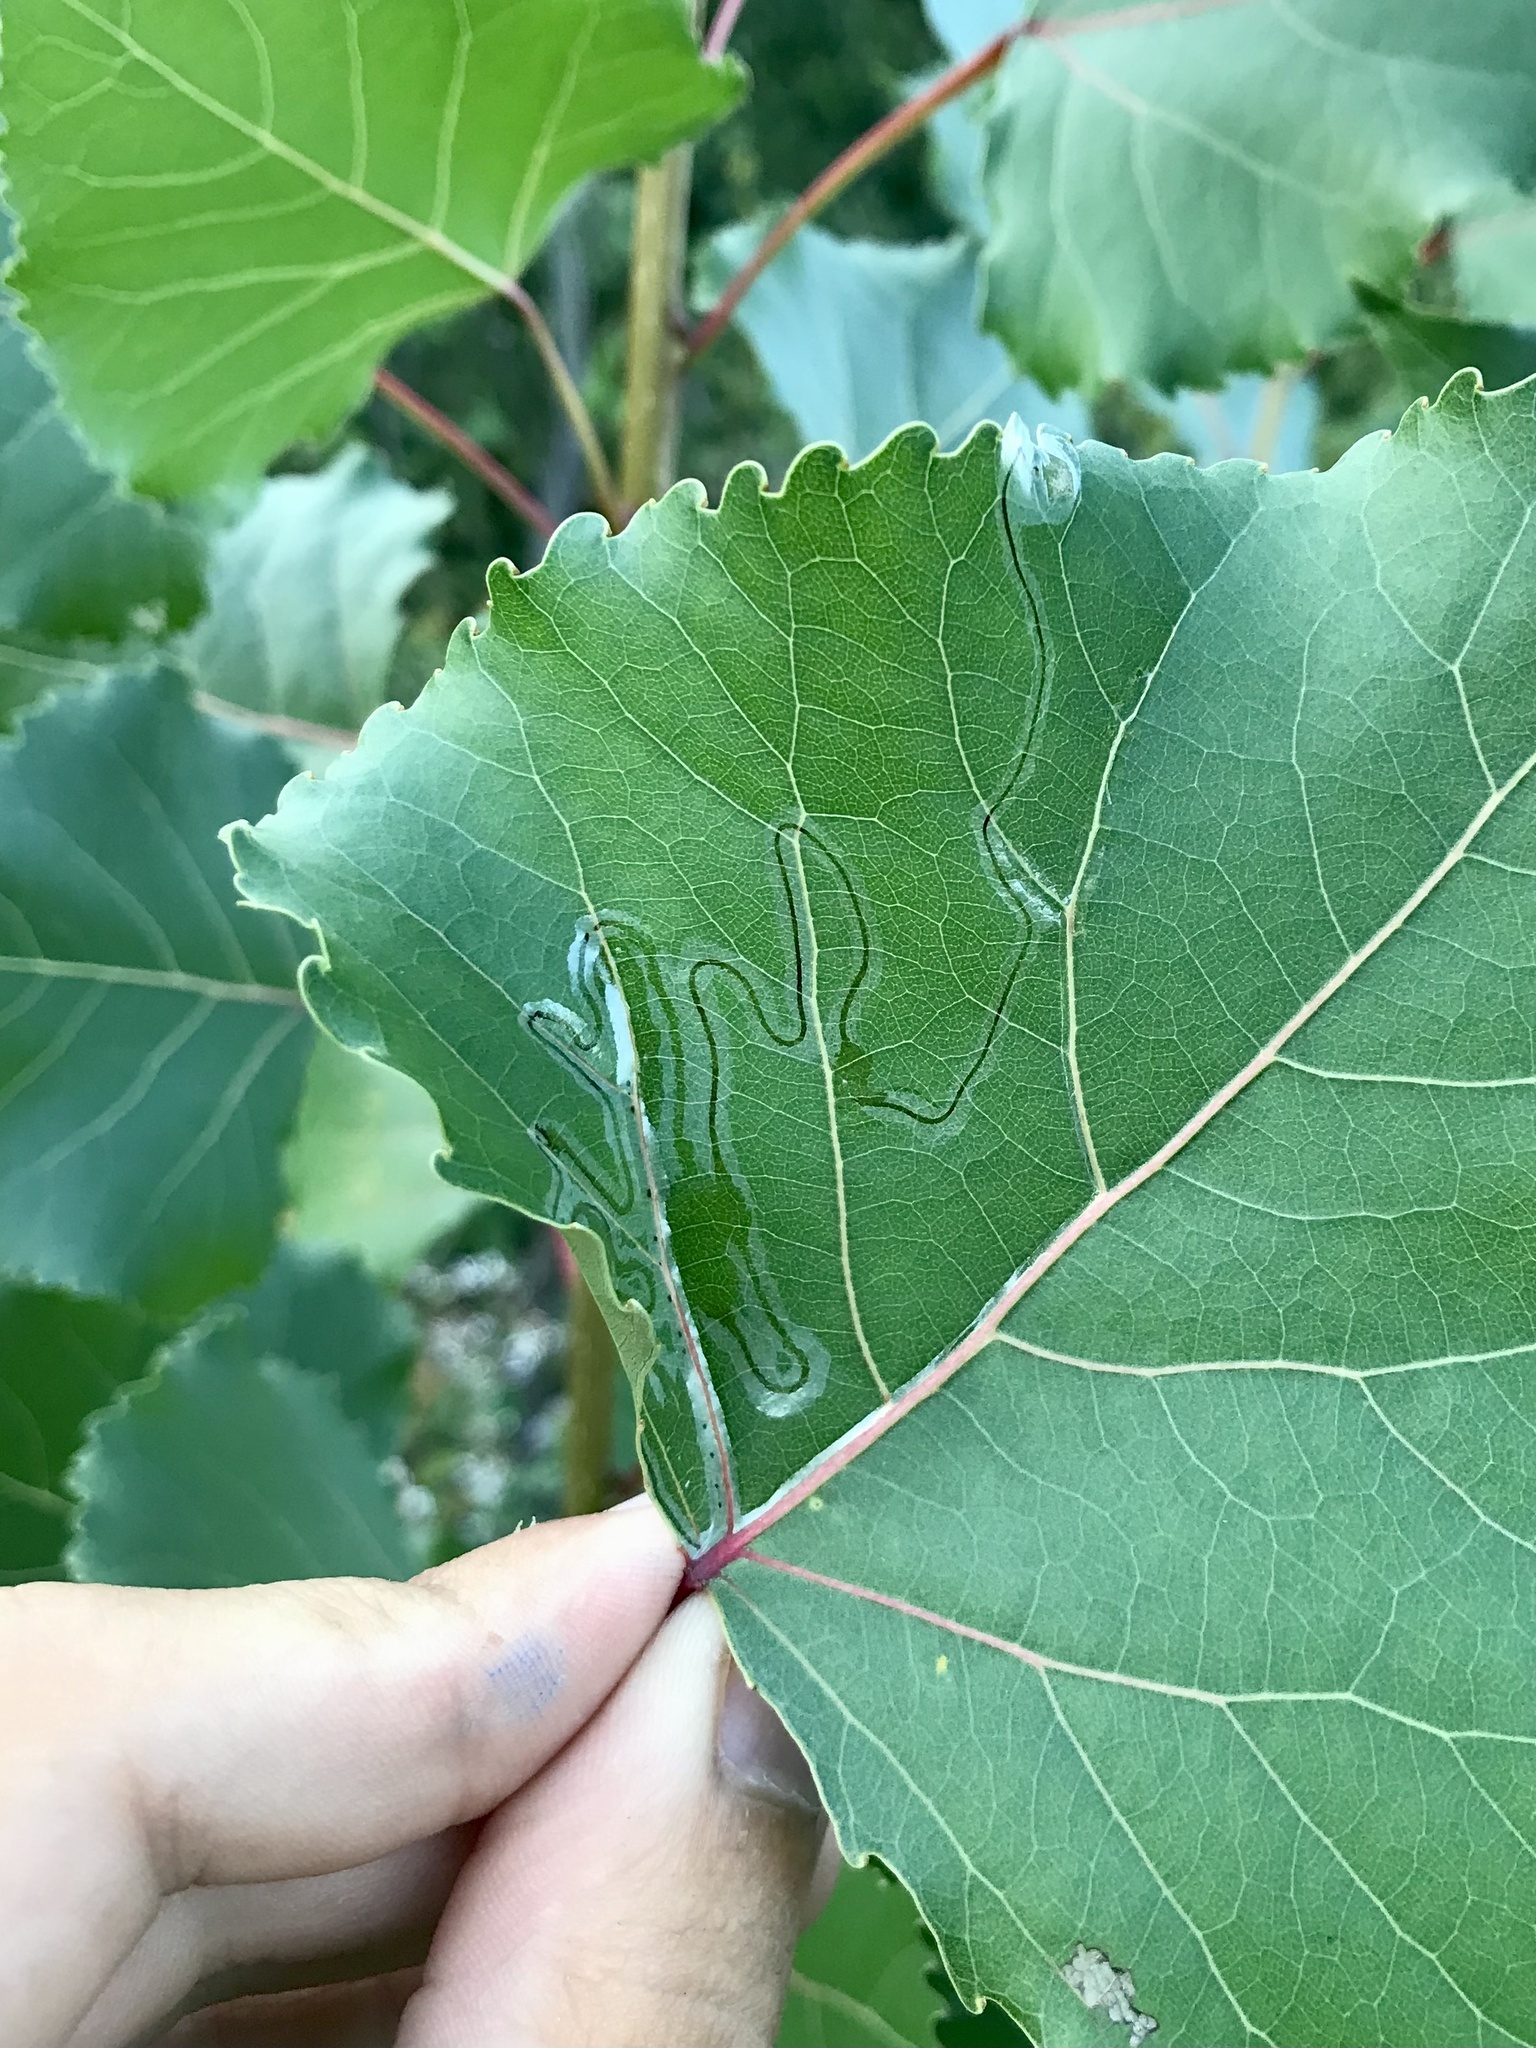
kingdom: Animalia
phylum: Arthropoda
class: Insecta
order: Lepidoptera
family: Gracillariidae
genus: Phyllocnistis
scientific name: Phyllocnistis populiella
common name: Aspen serpentine leafminer moth
